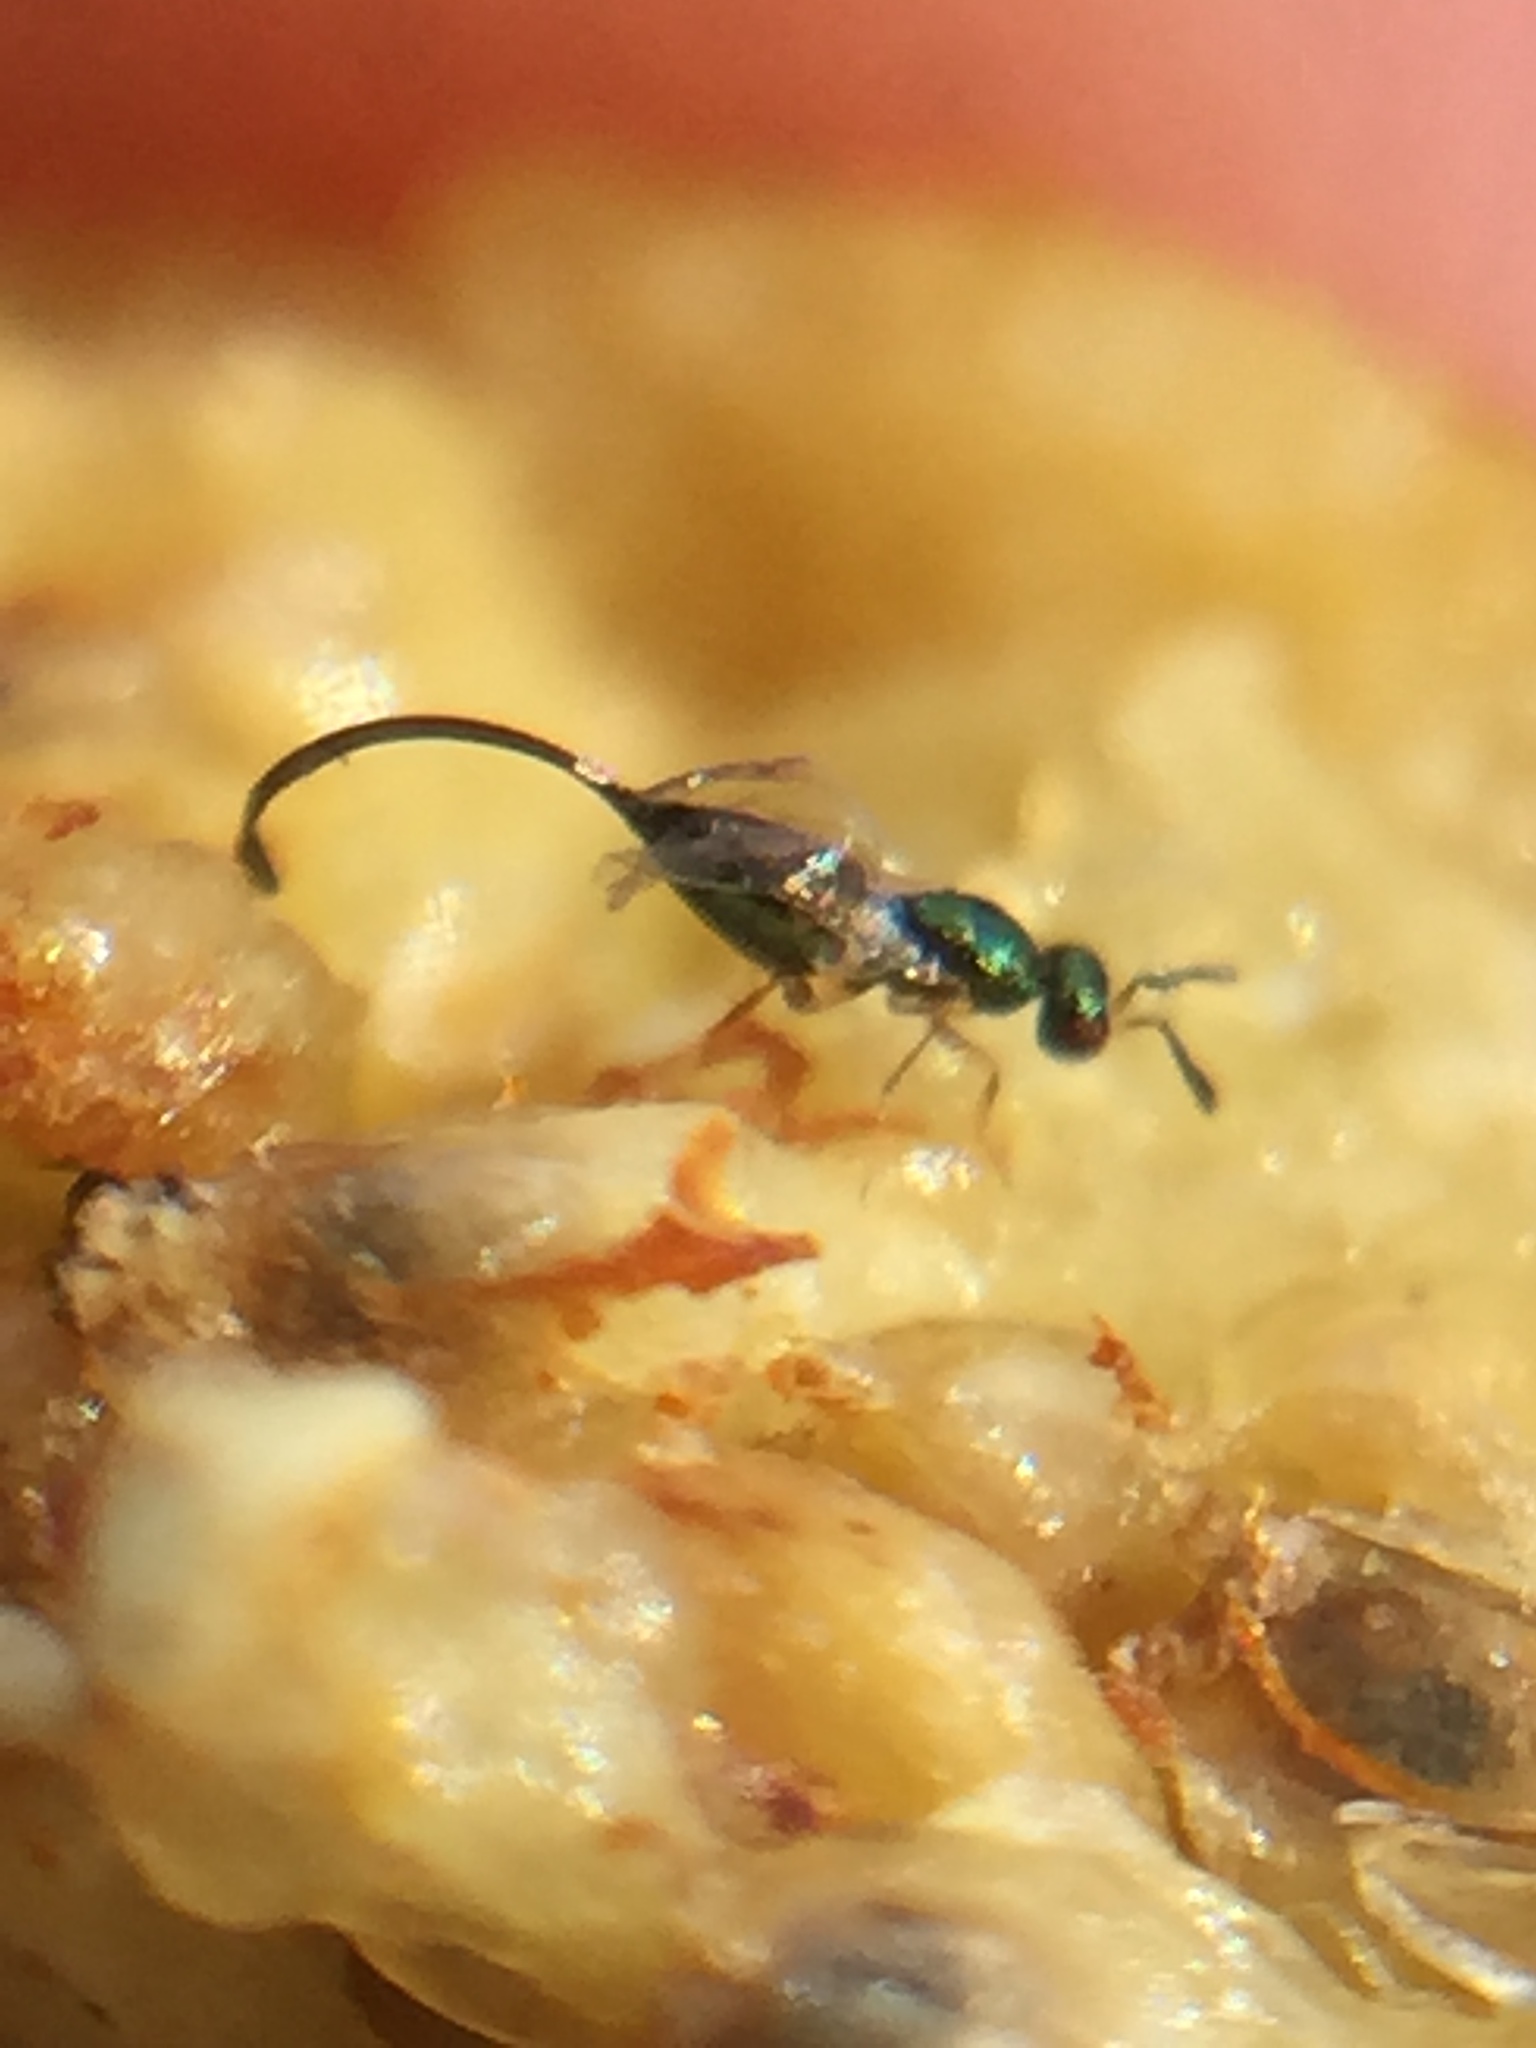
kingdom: Animalia
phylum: Arthropoda
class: Insecta
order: Hymenoptera
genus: Sycoscapter
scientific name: Sycoscapter
